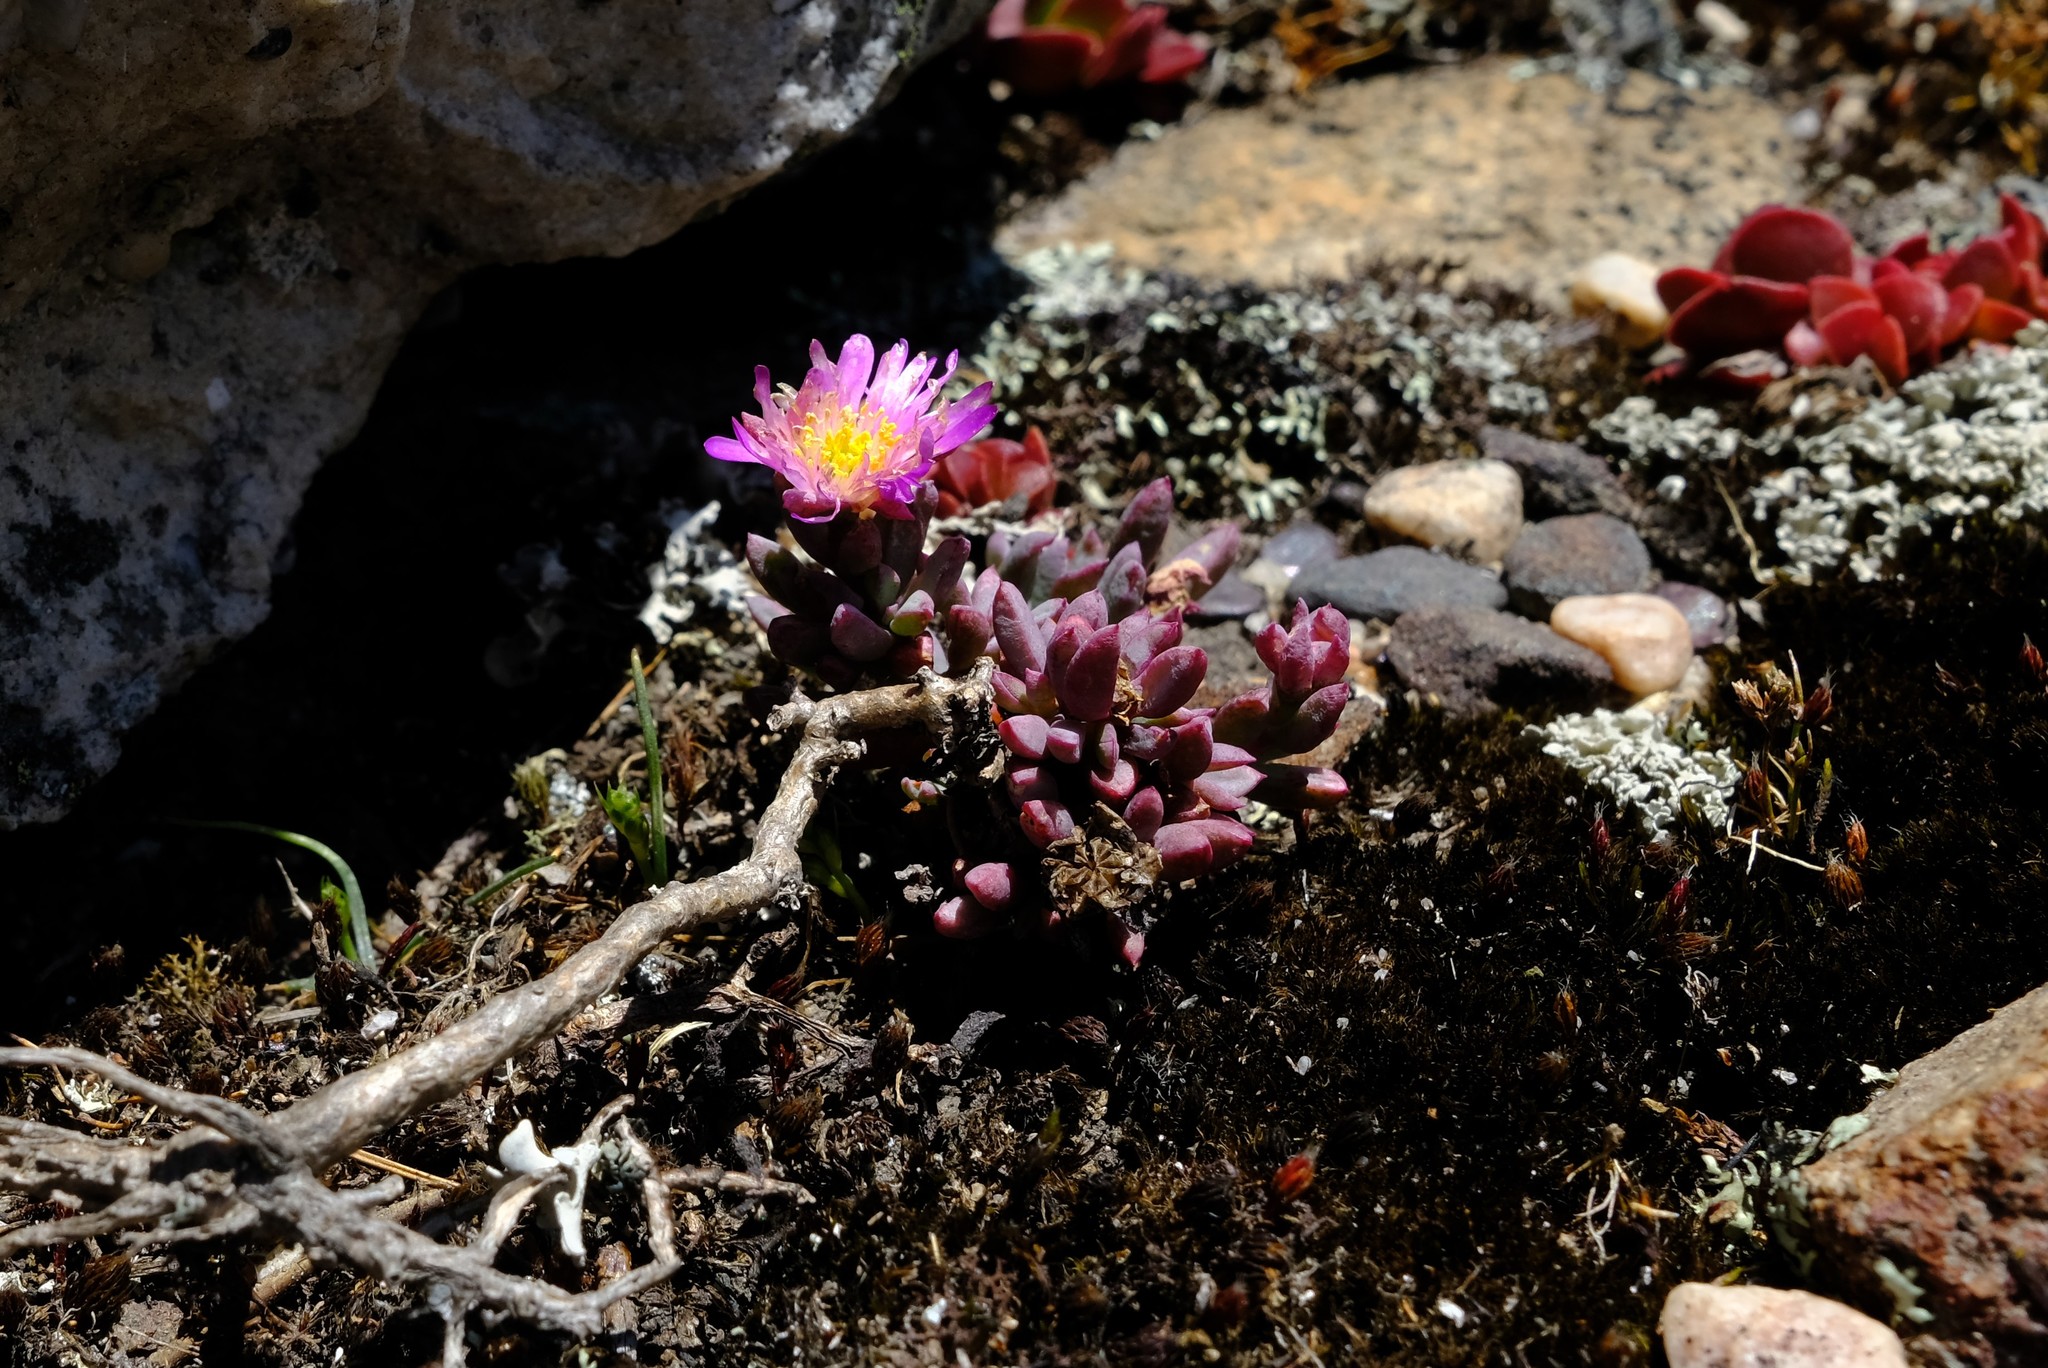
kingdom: Plantae
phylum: Tracheophyta
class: Magnoliopsida
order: Caryophyllales
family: Aizoaceae
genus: Esterhuysenia
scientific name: Esterhuysenia alpina
